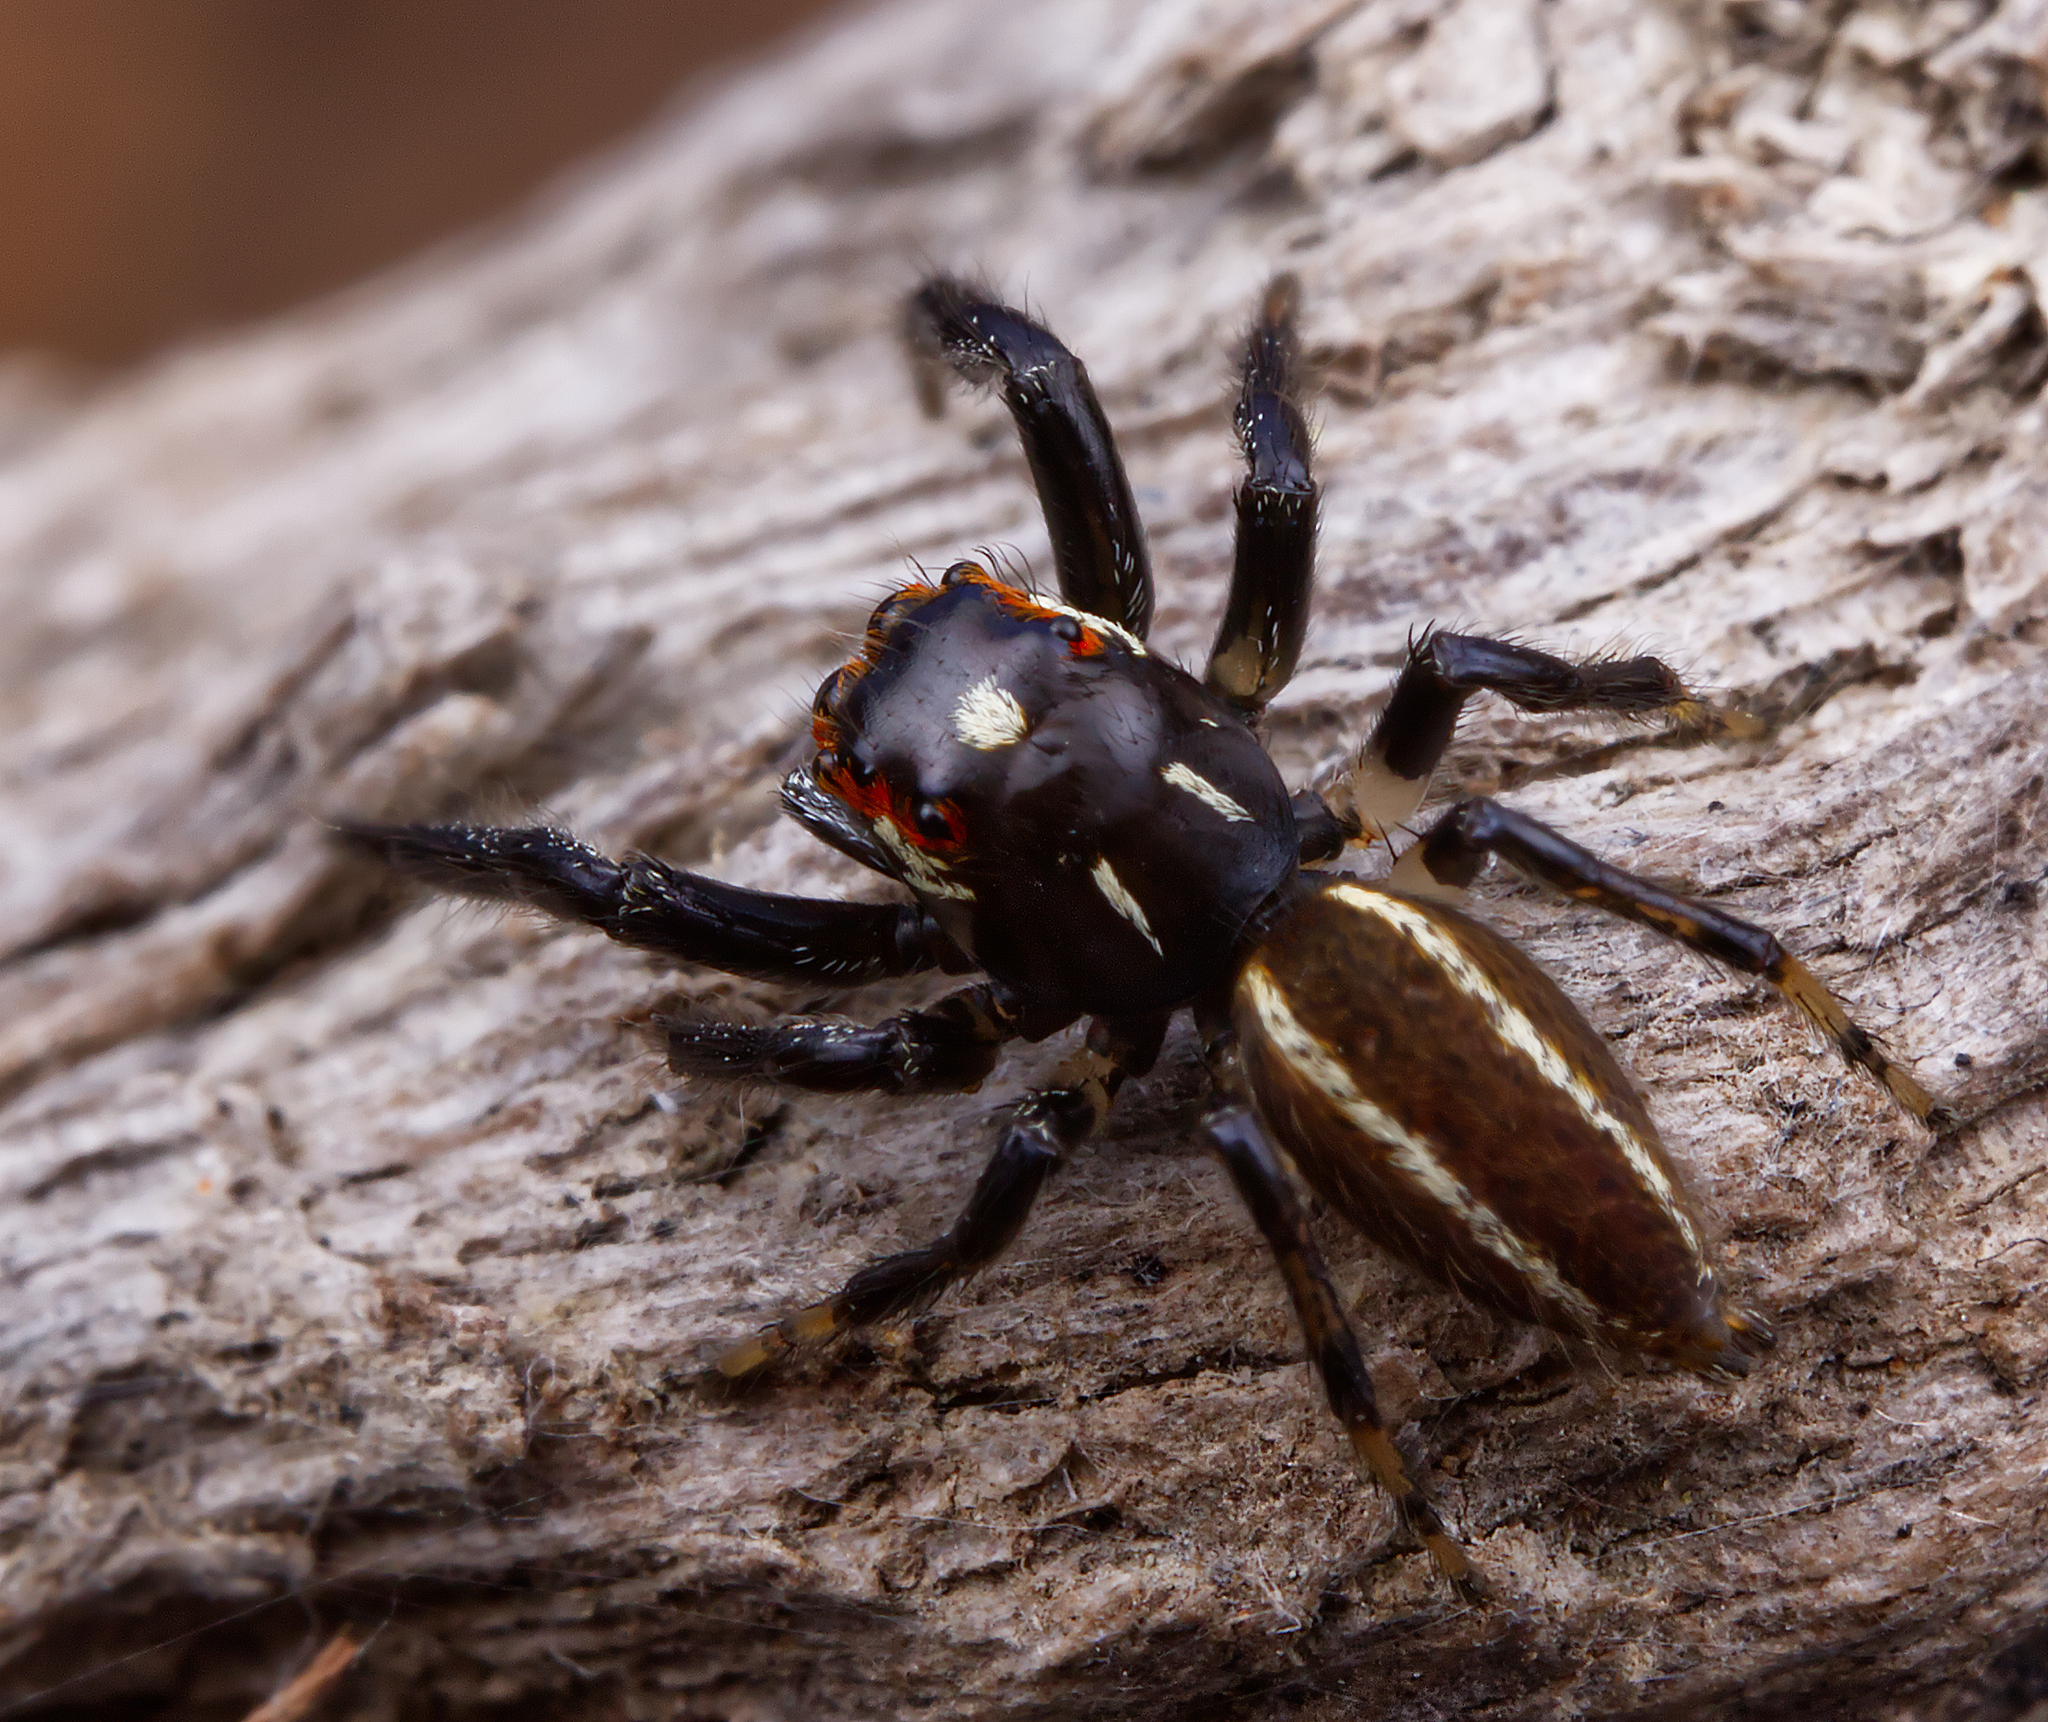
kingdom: Animalia
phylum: Arthropoda
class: Arachnida
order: Araneae
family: Salticidae
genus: Colonus
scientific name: Colonus sylvanus
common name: Jumping spiders
